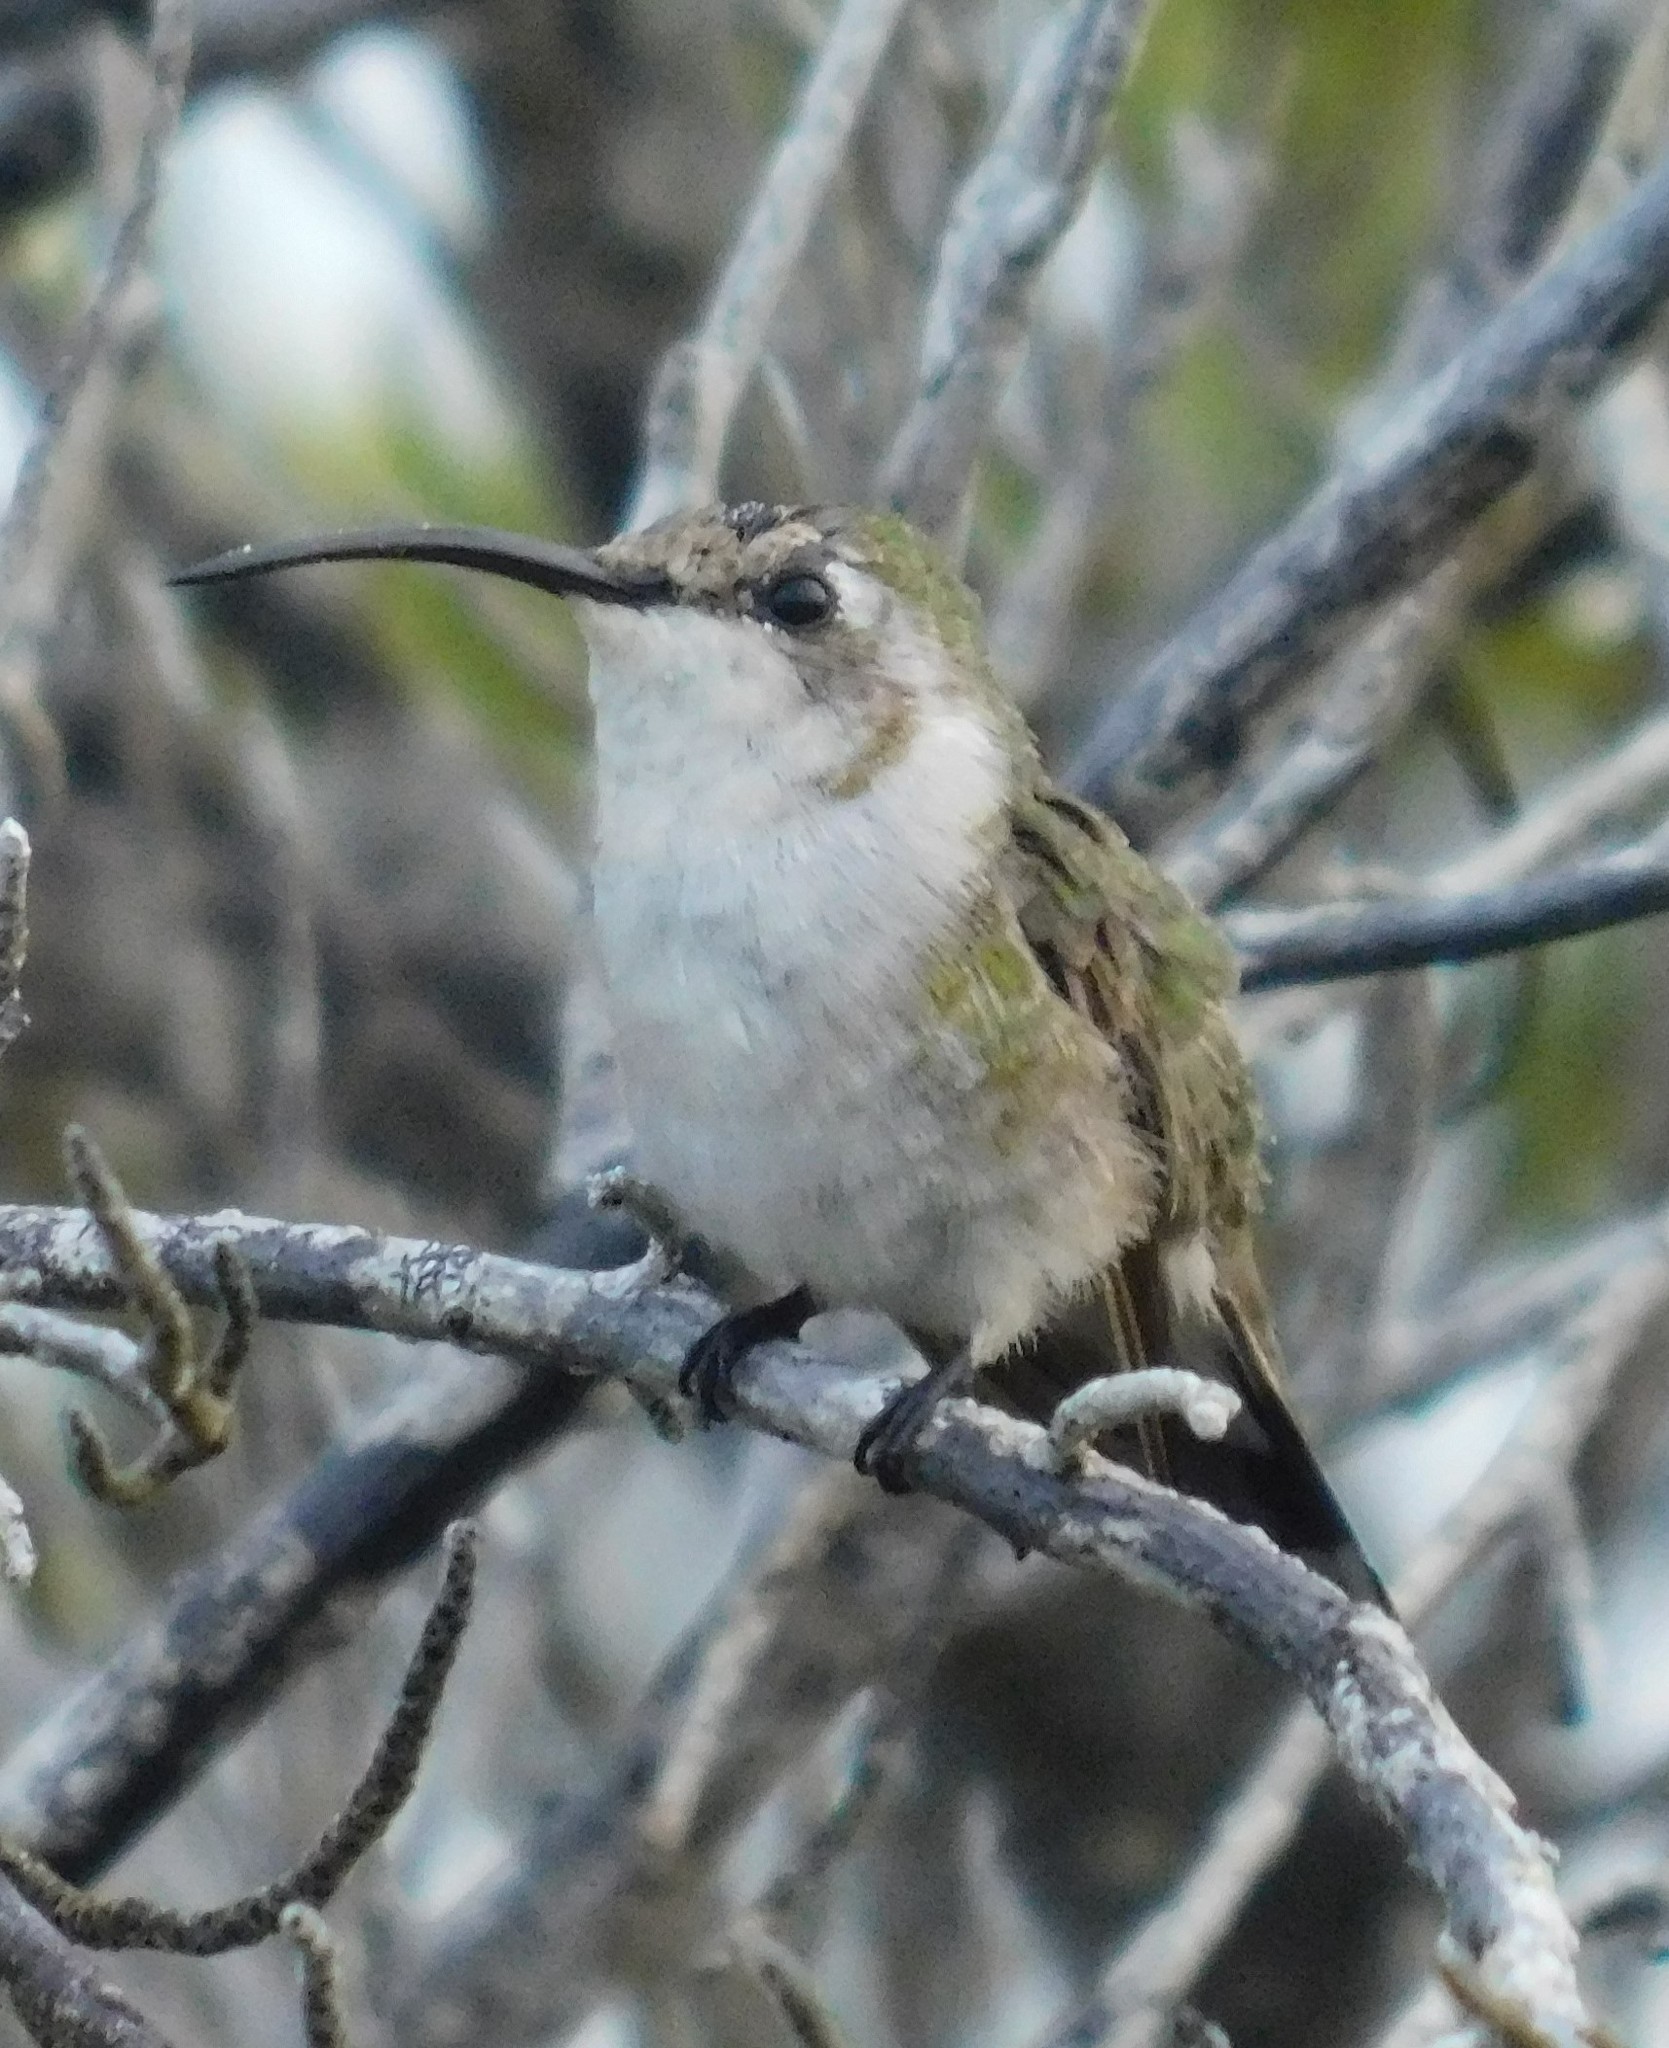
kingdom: Animalia
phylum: Chordata
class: Aves
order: Apodiformes
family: Trochilidae
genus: Doricha
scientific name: Doricha eliza
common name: Mexican sheartail
